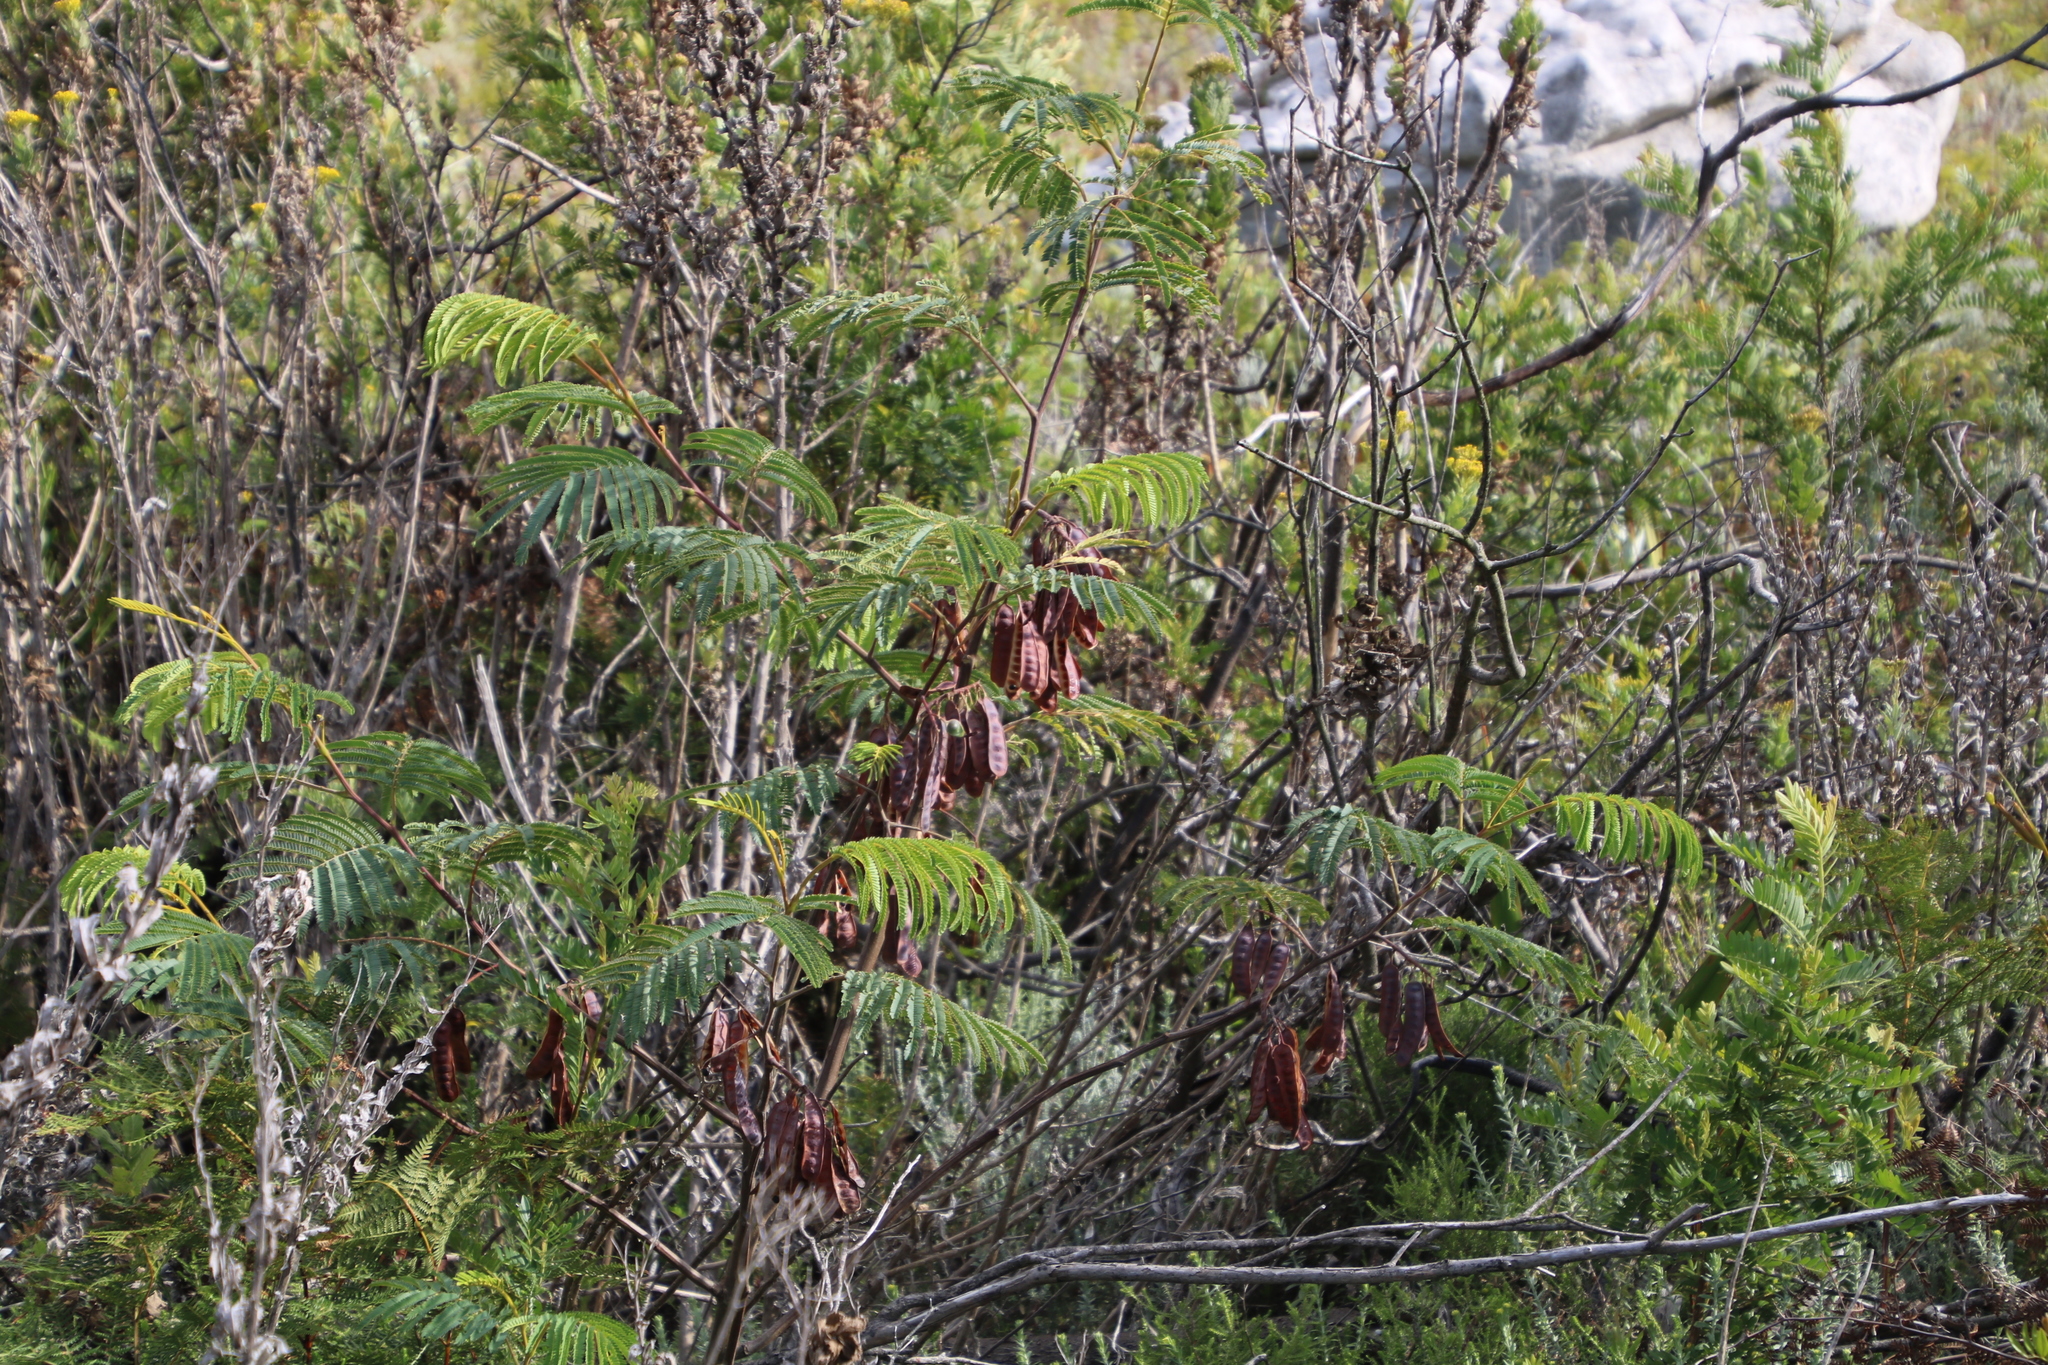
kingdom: Plantae
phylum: Tracheophyta
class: Magnoliopsida
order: Fabales
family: Fabaceae
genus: Paraserianthes
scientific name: Paraserianthes lophantha
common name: Plume albizia
